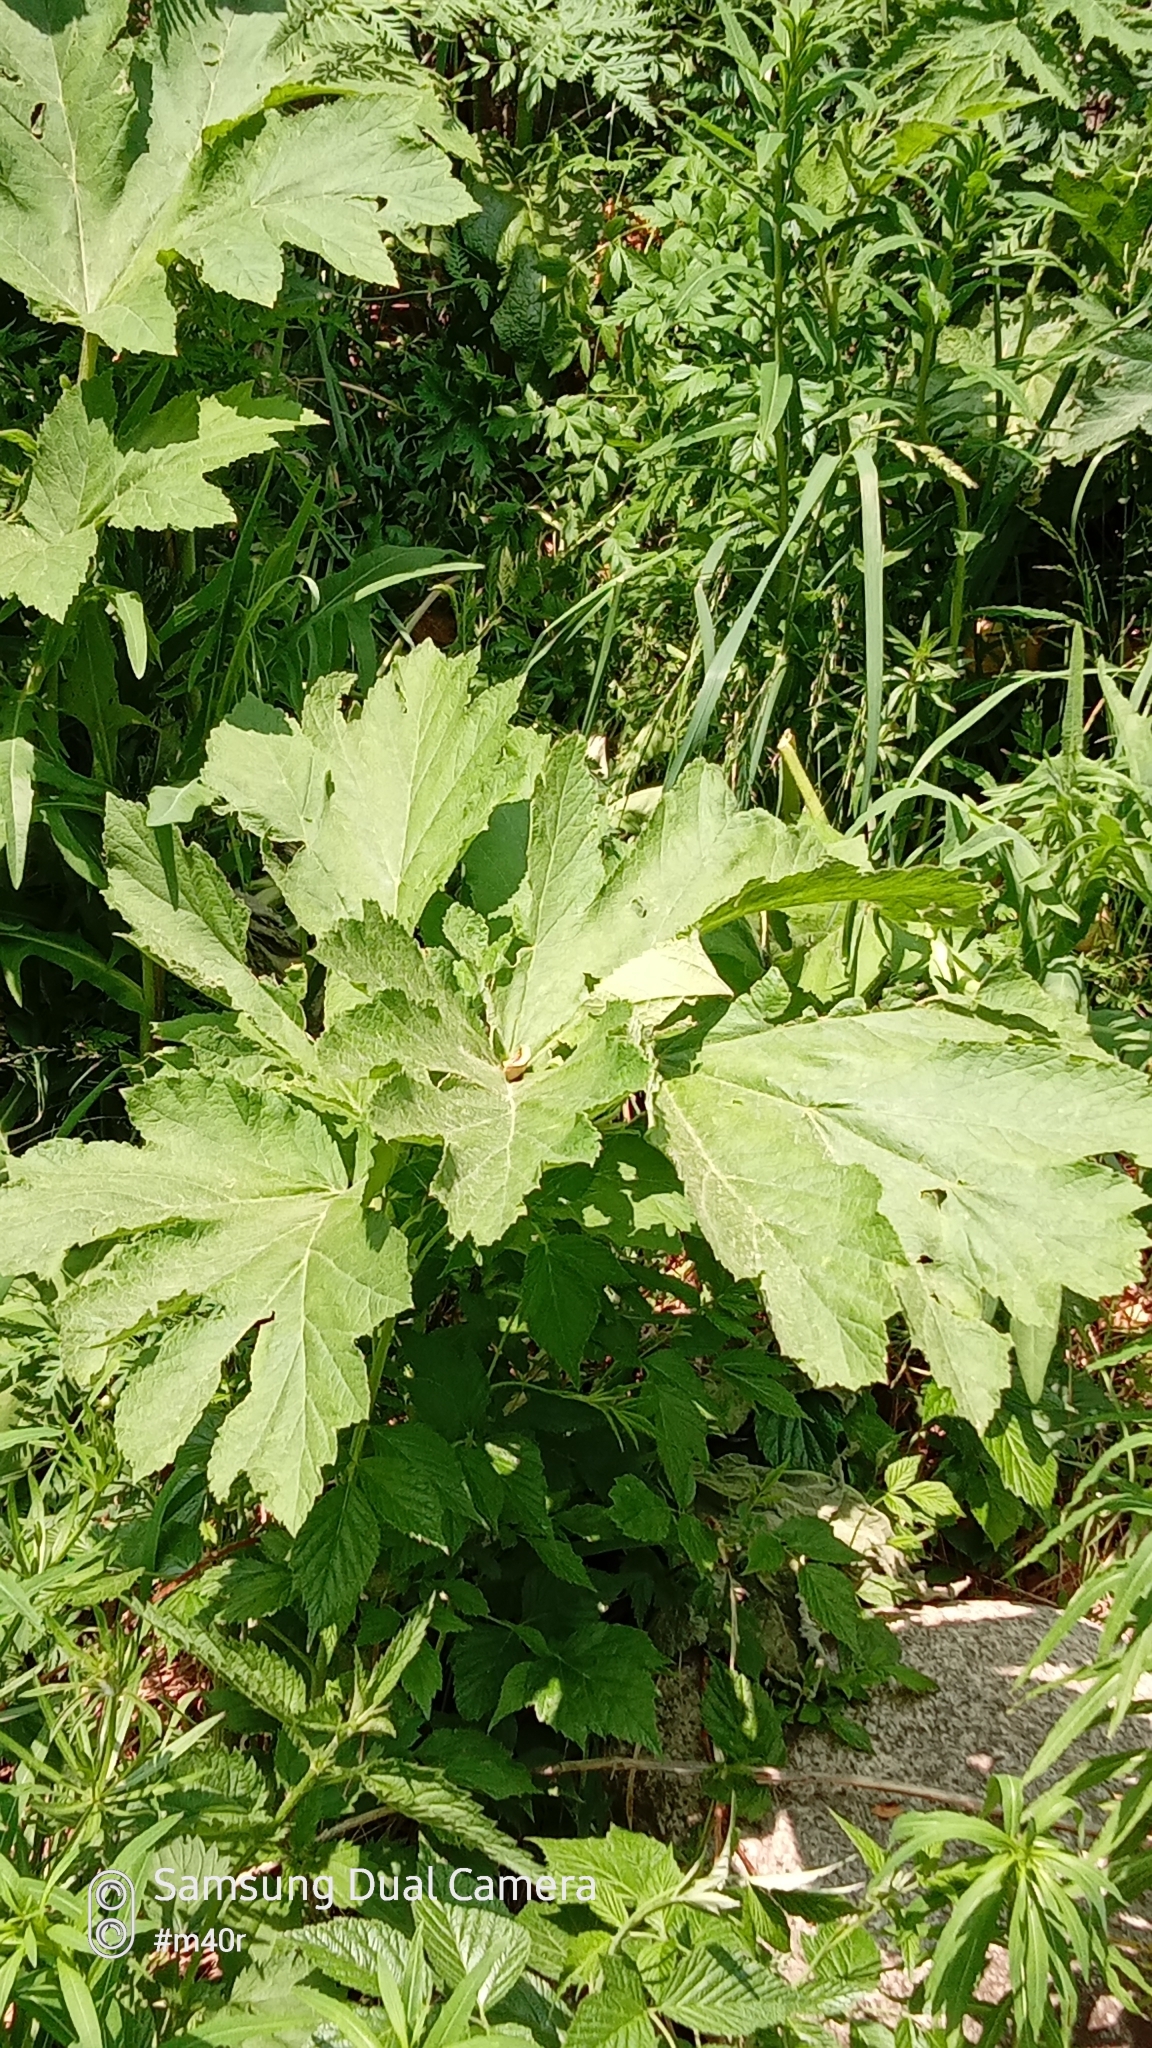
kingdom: Plantae
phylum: Tracheophyta
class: Magnoliopsida
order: Apiales
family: Apiaceae
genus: Heracleum
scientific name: Heracleum dissectum
